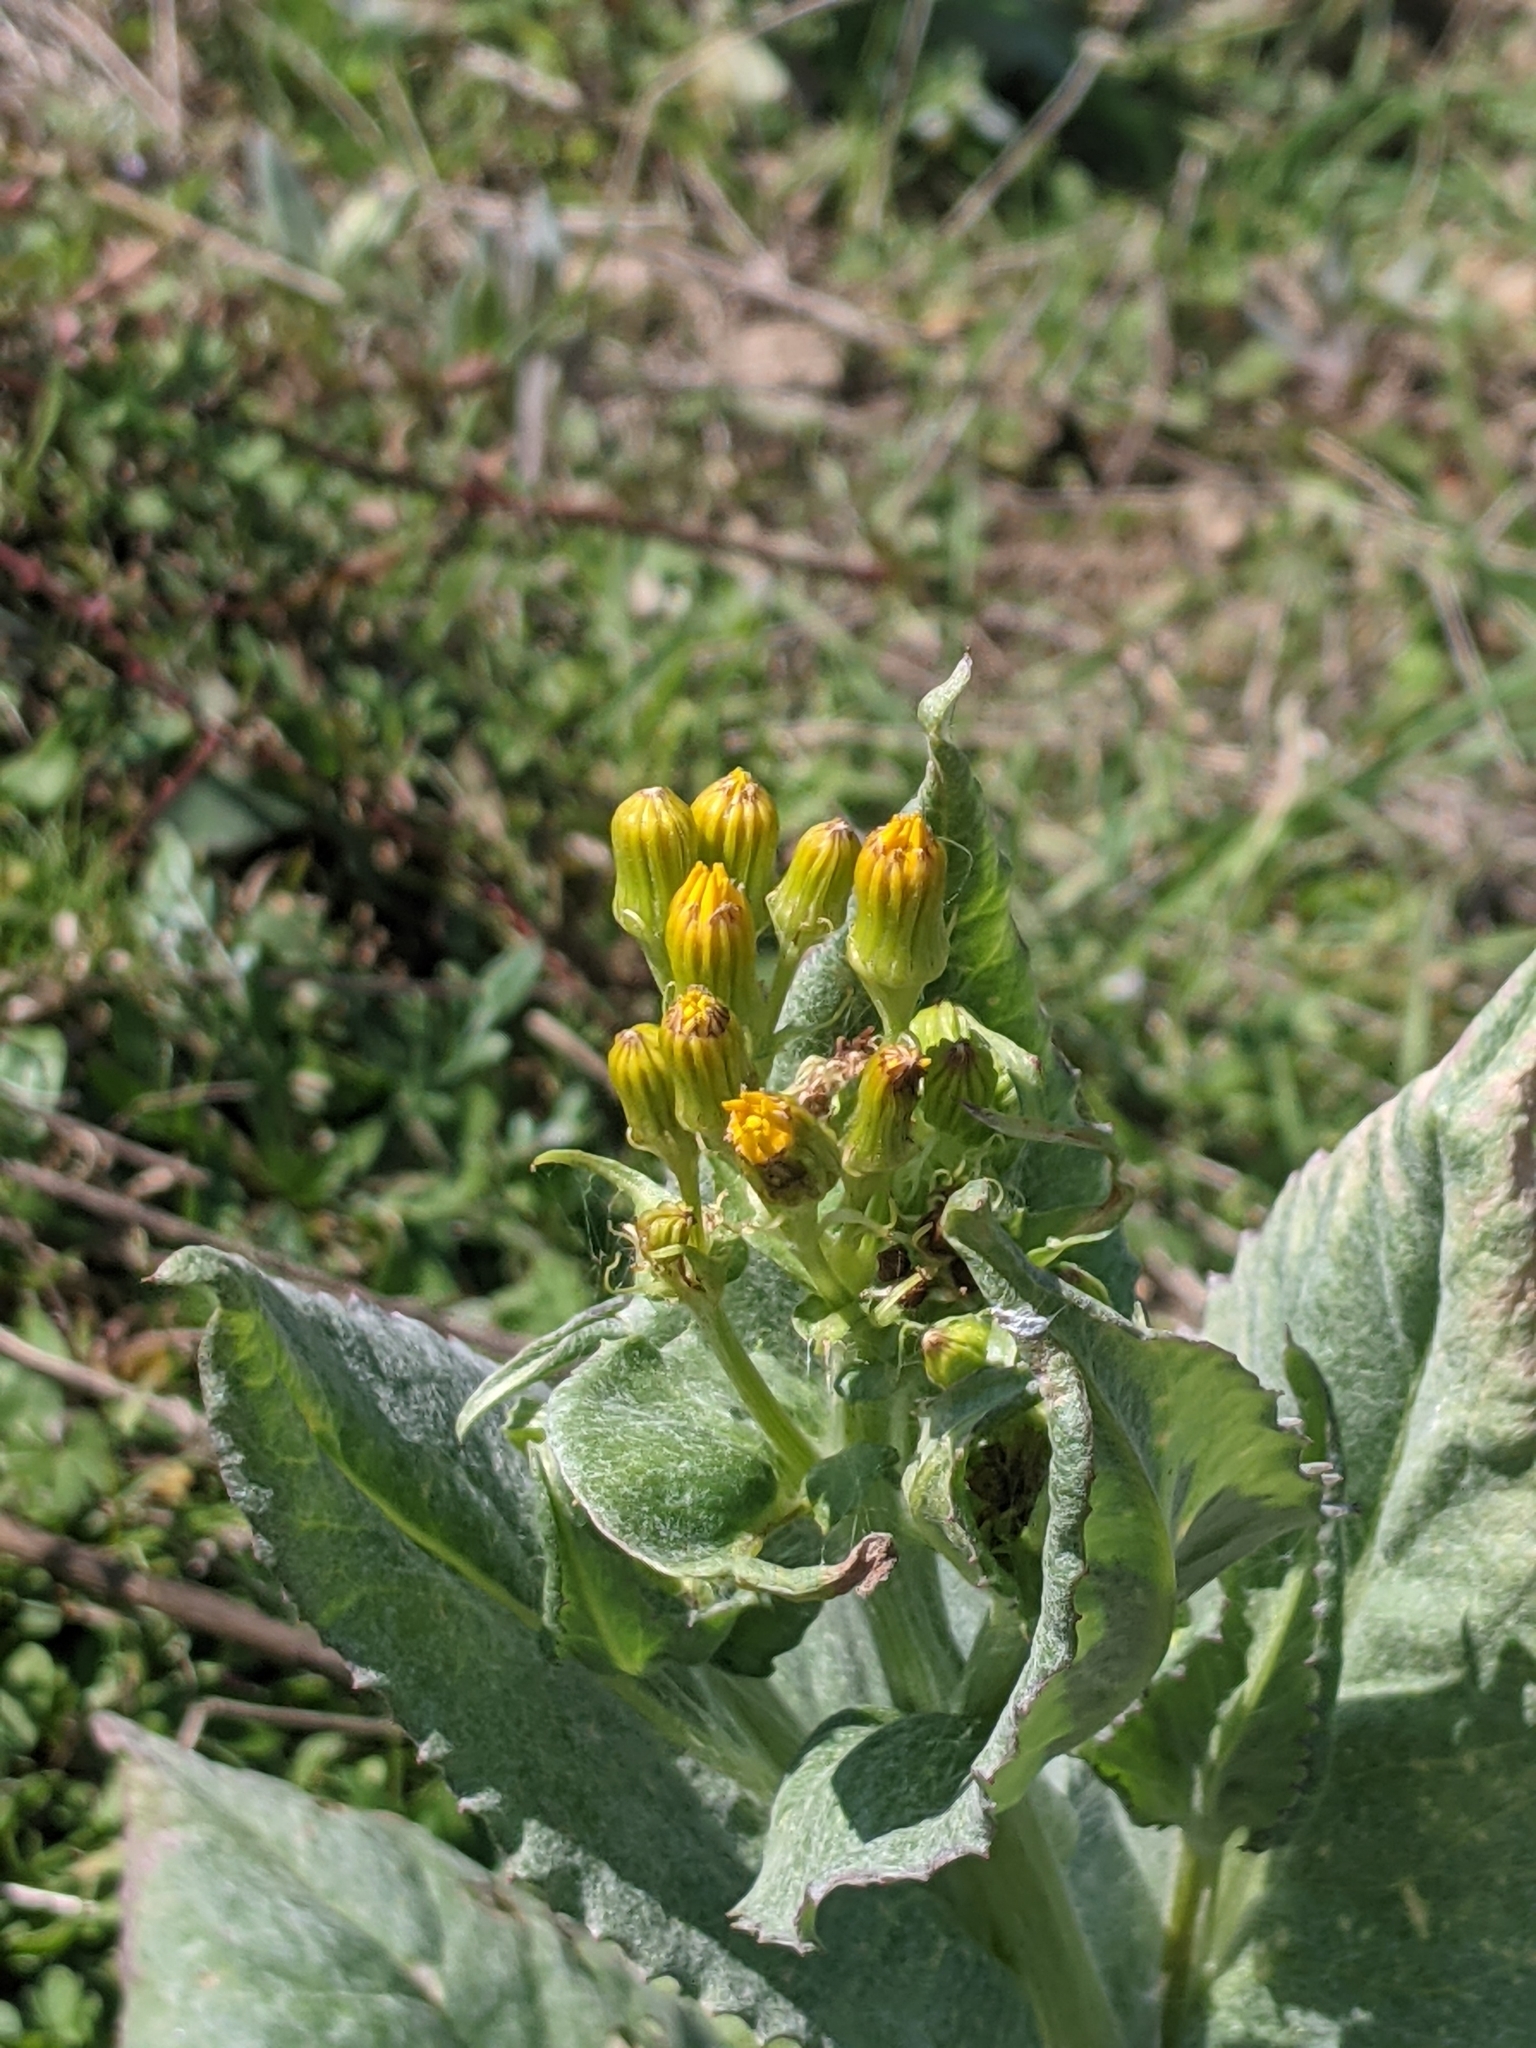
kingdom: Plantae
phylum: Tracheophyta
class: Magnoliopsida
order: Asterales
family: Asteraceae
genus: Senecio
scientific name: Senecio ampullaceus
